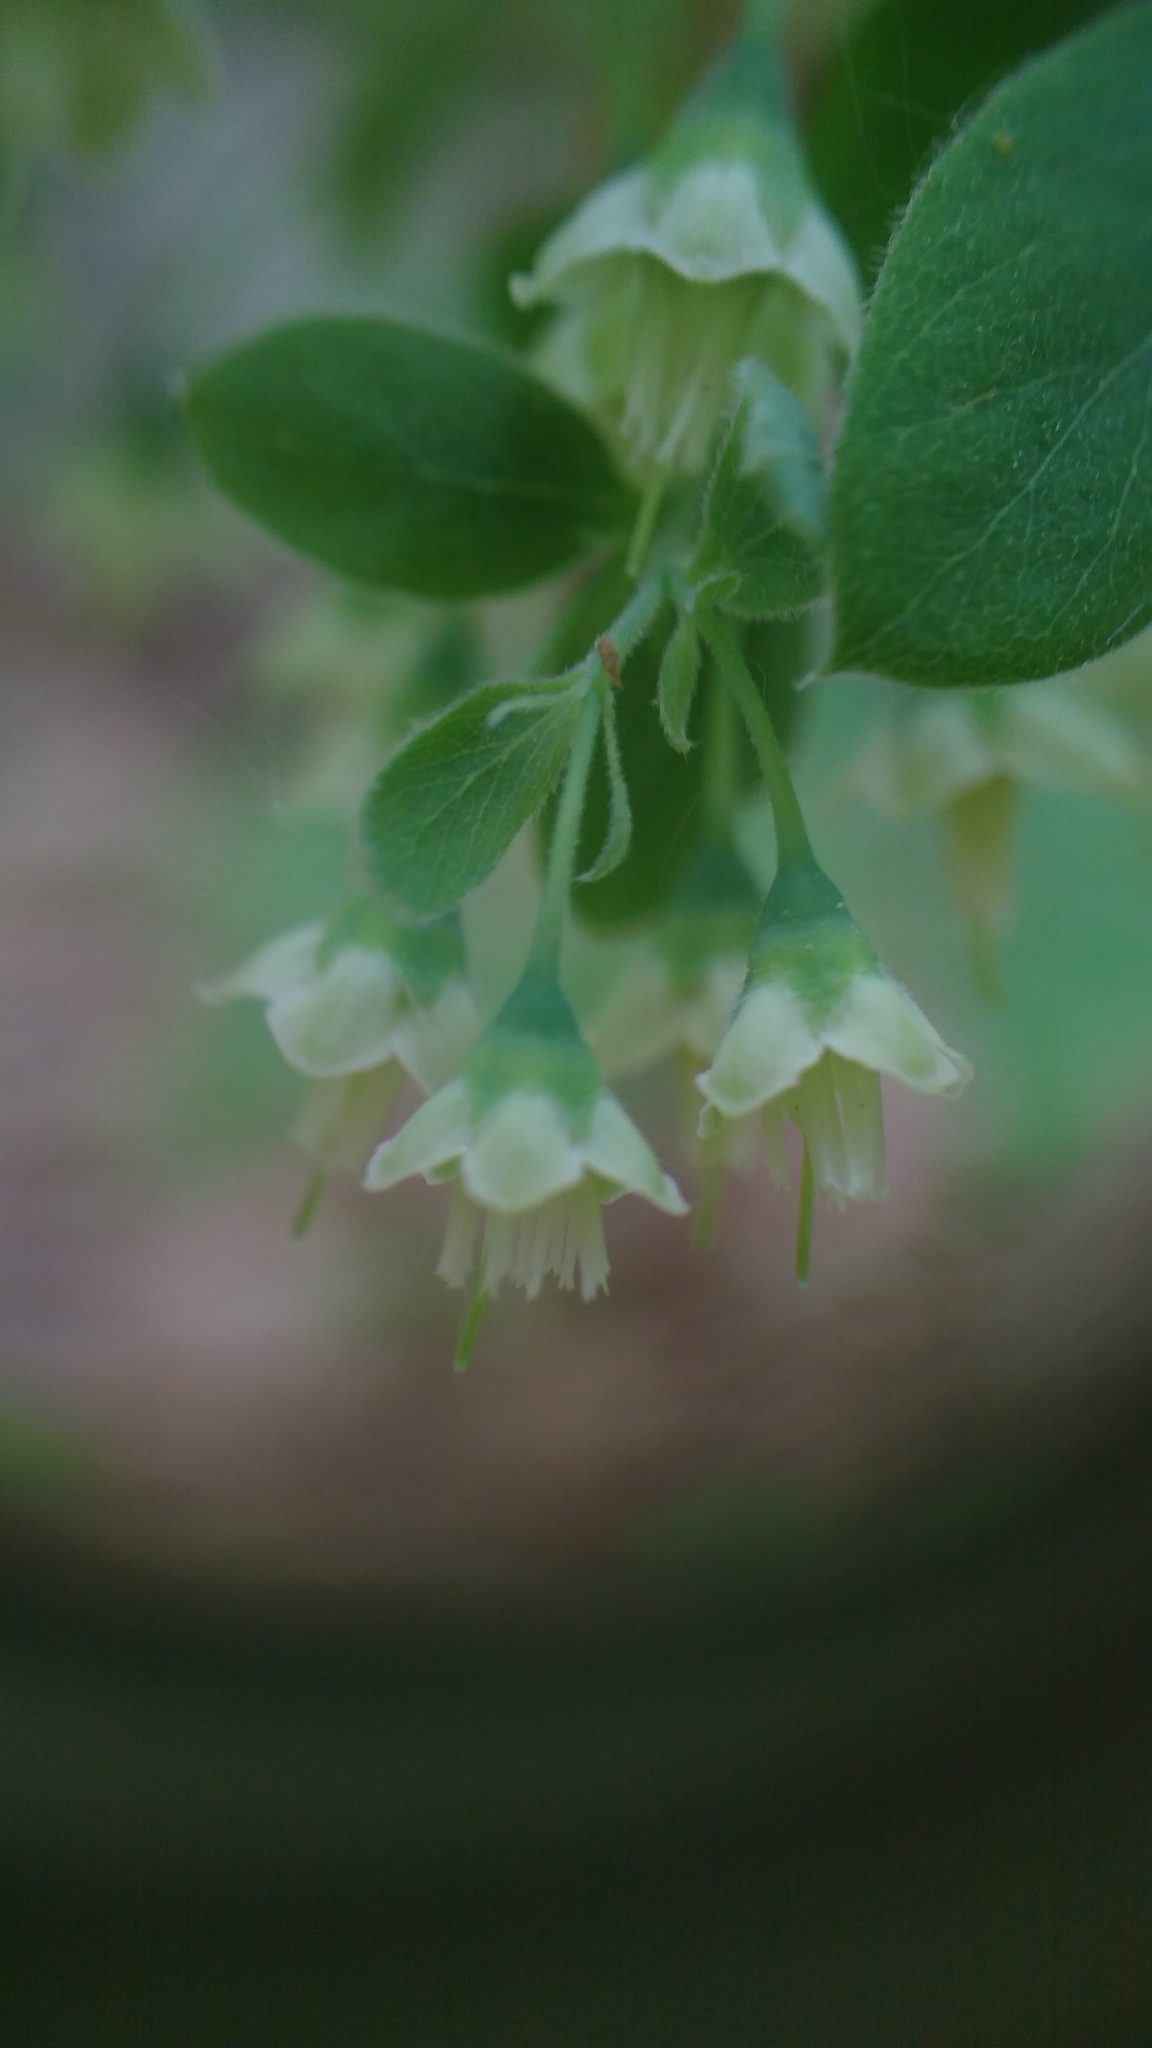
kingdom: Plantae
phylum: Tracheophyta
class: Magnoliopsida
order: Ericales
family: Ericaceae
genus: Vaccinium
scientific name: Vaccinium stamineum
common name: Deerberry
